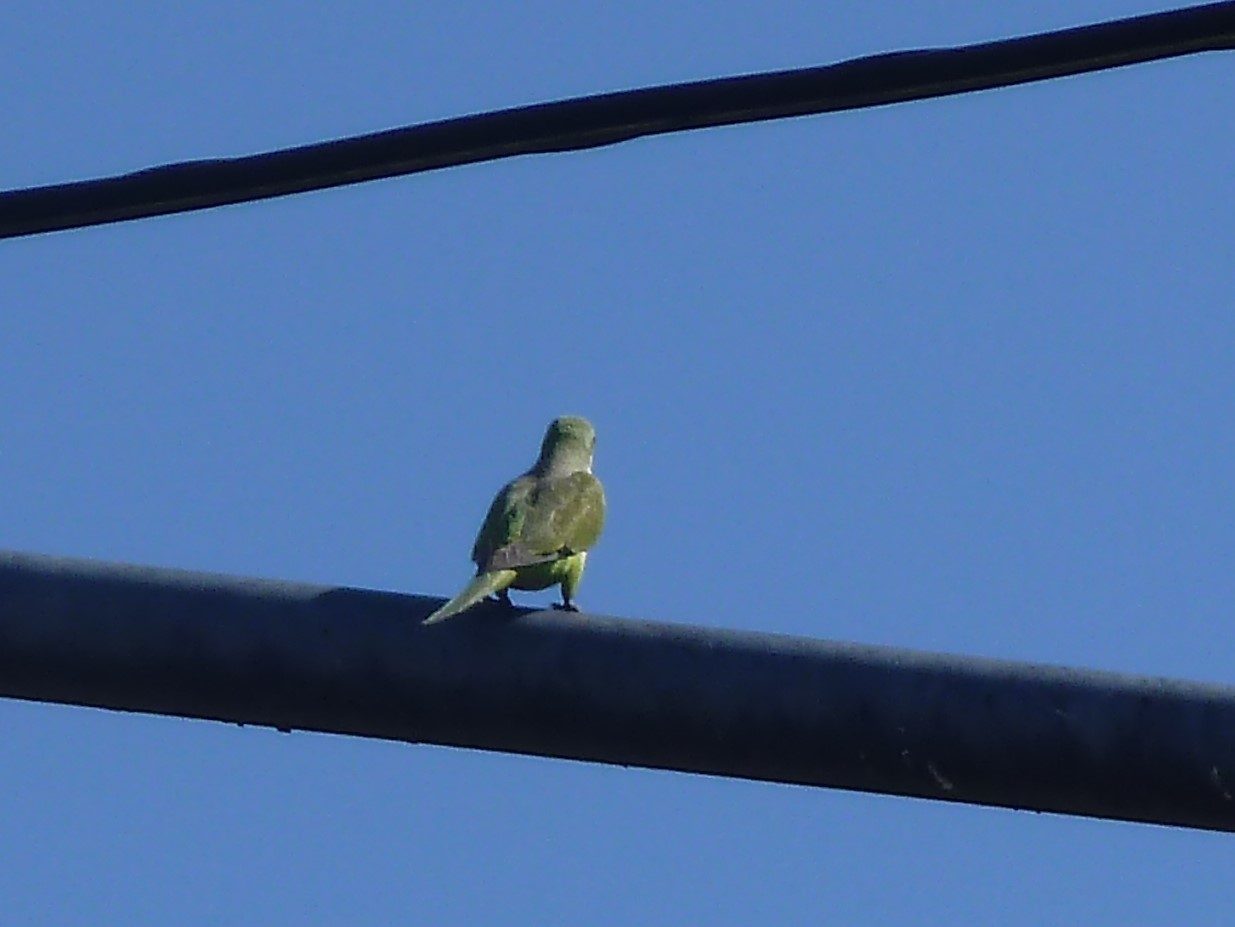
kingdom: Animalia
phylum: Chordata
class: Aves
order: Psittaciformes
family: Psittacidae
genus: Myiopsitta
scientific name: Myiopsitta monachus
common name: Monk parakeet
